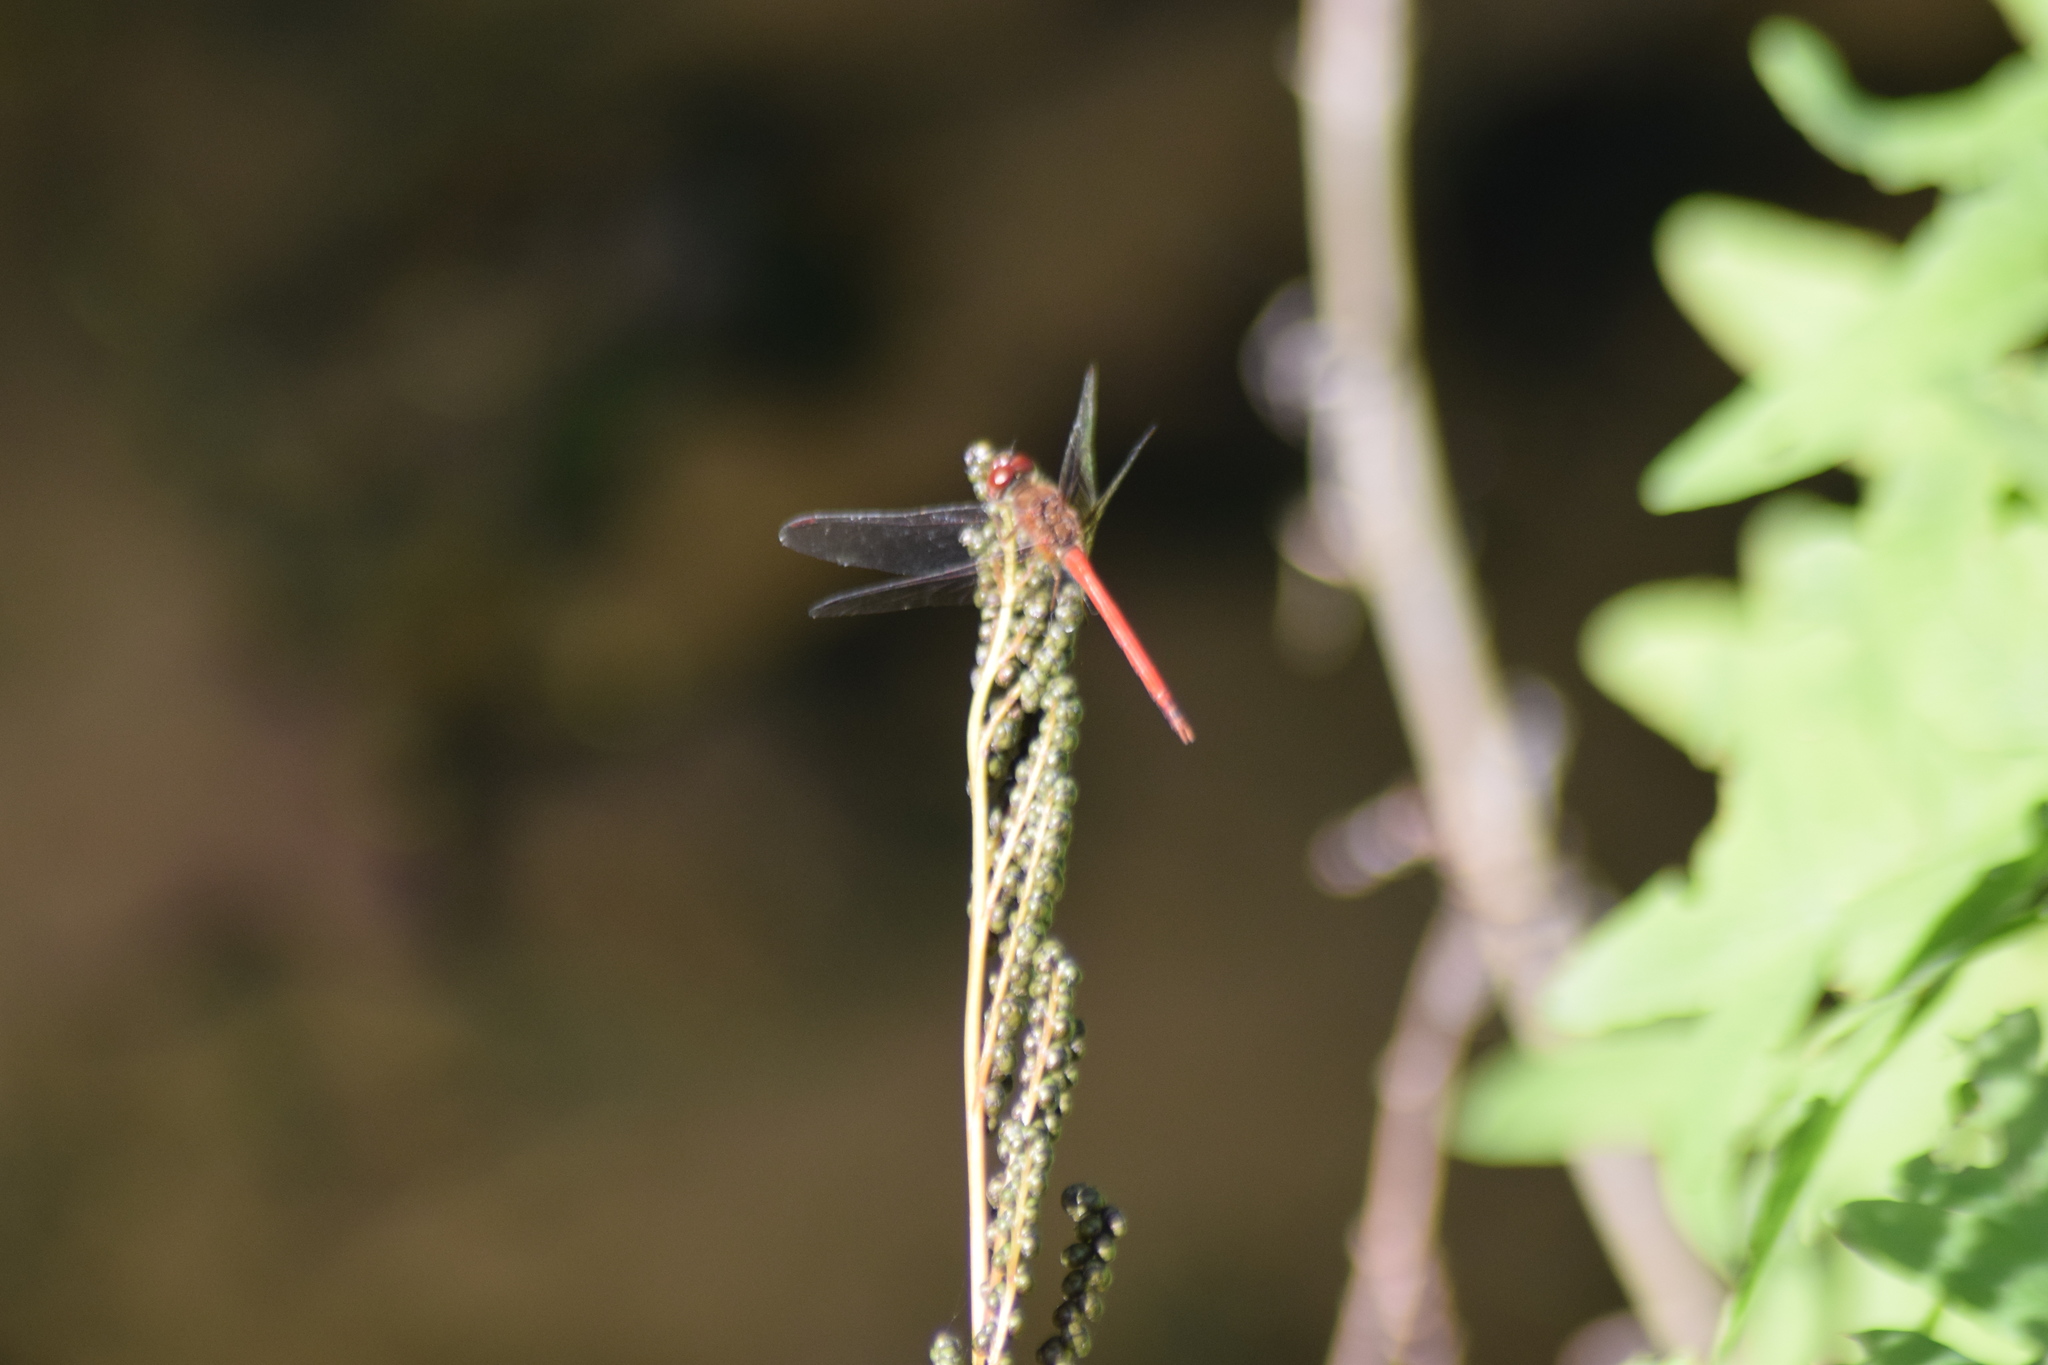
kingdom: Animalia
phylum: Arthropoda
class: Insecta
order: Odonata
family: Libellulidae
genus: Sympetrum
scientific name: Sympetrum vicinum
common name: Autumn meadowhawk
